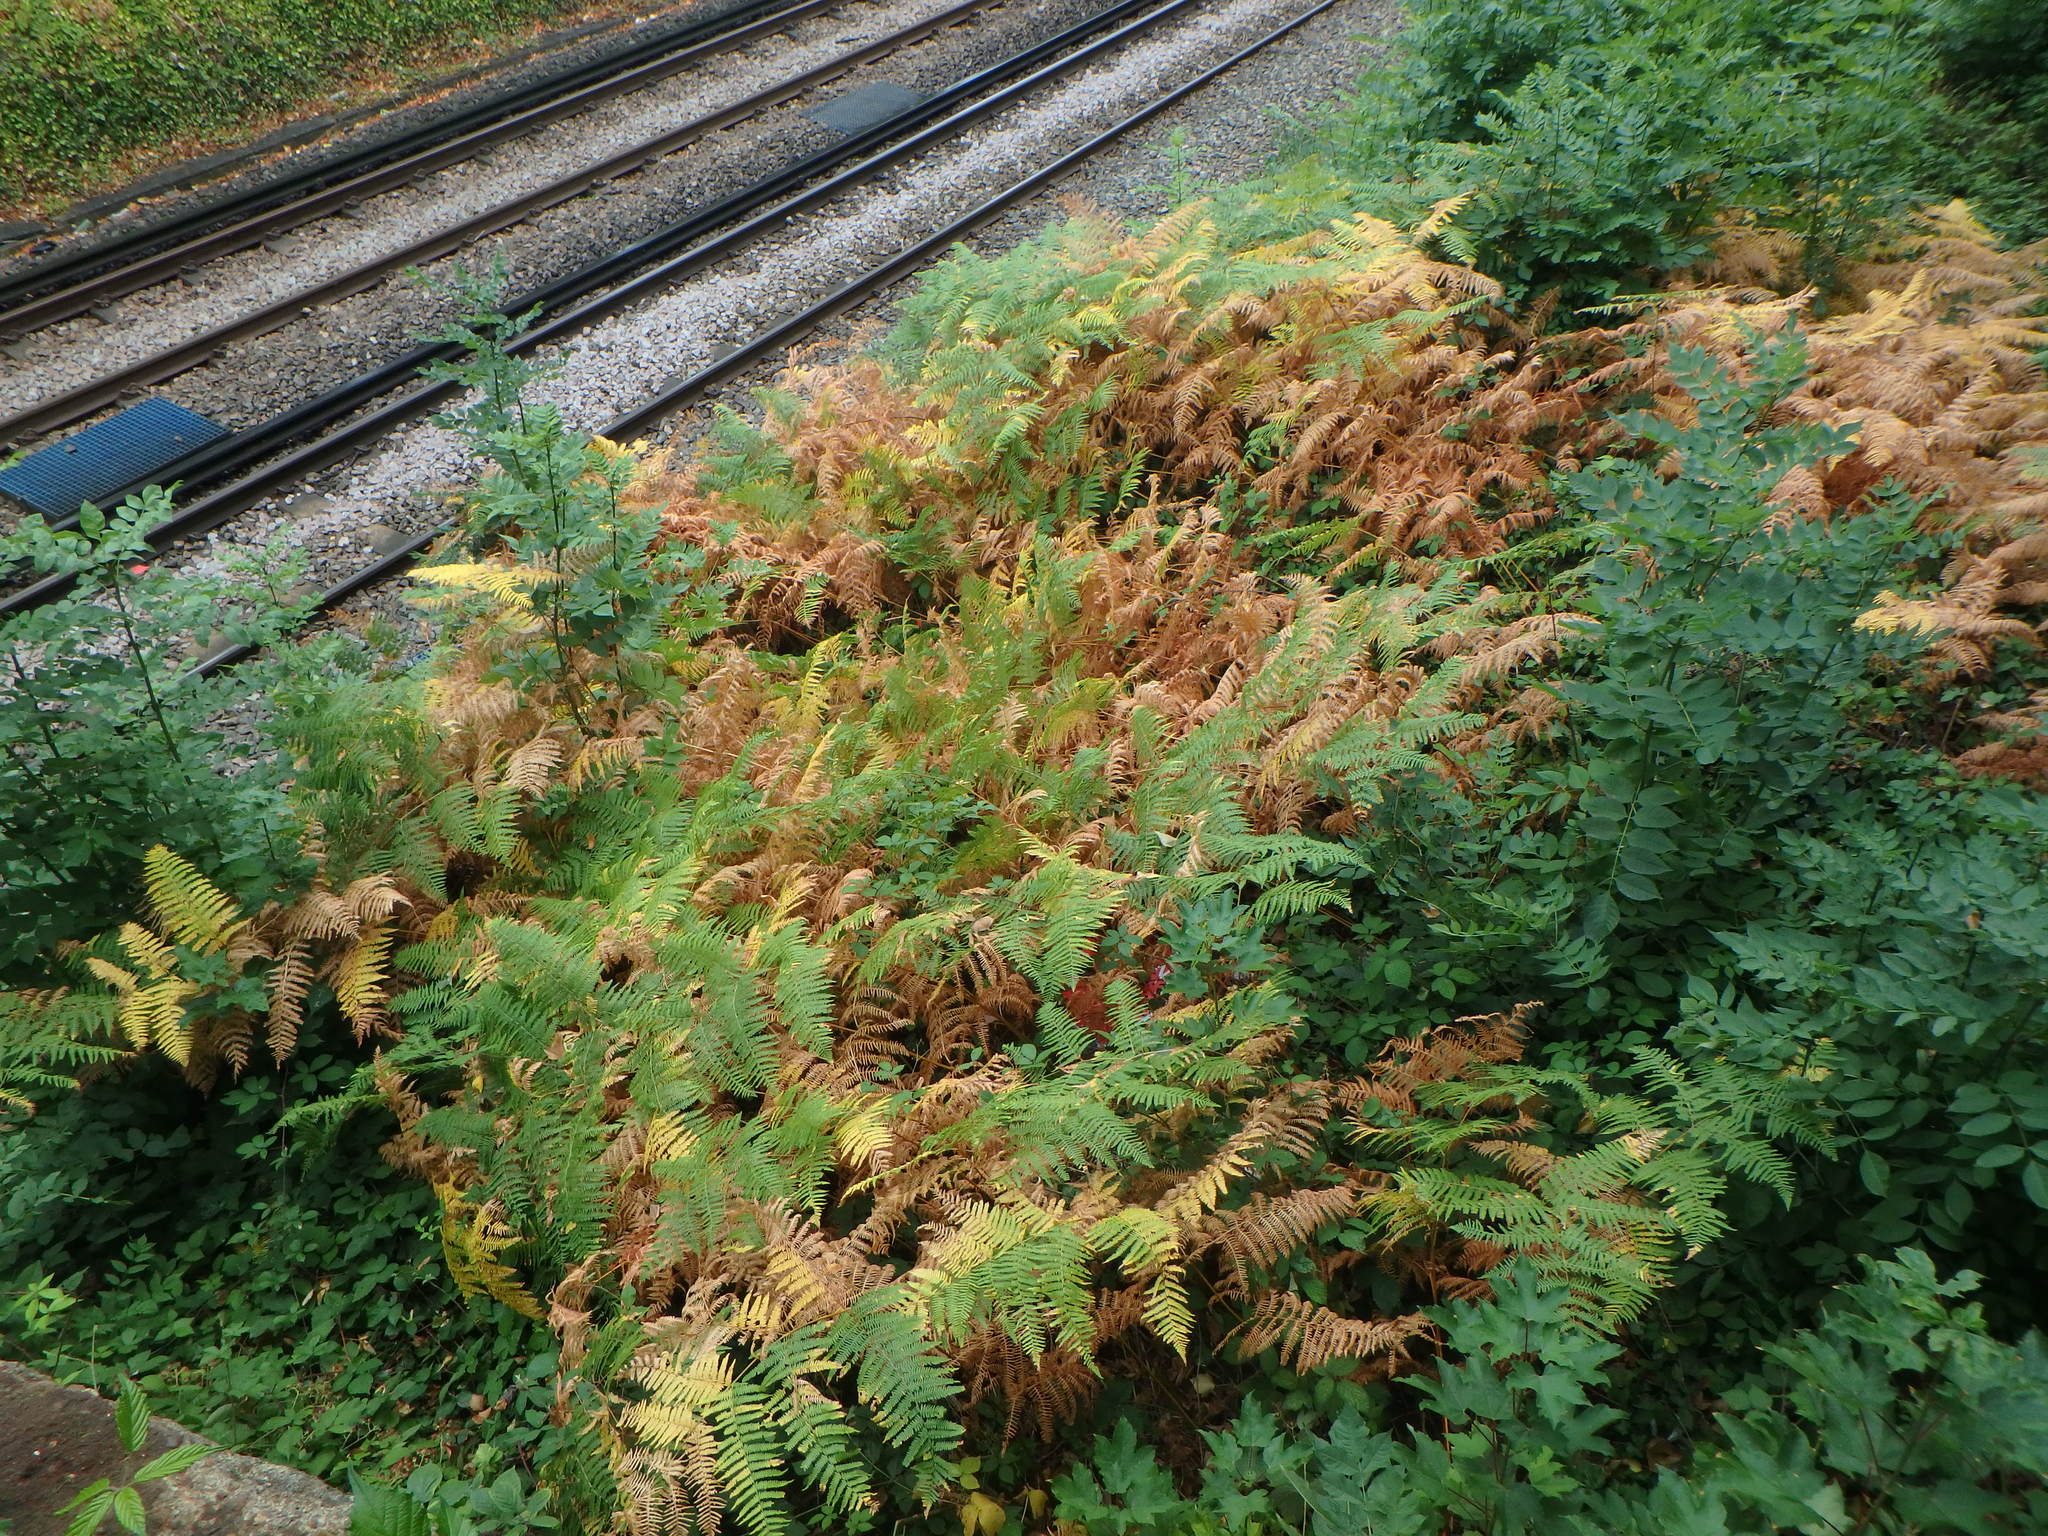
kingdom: Plantae
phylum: Tracheophyta
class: Polypodiopsida
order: Polypodiales
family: Dennstaedtiaceae
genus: Pteridium
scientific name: Pteridium aquilinum
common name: Bracken
